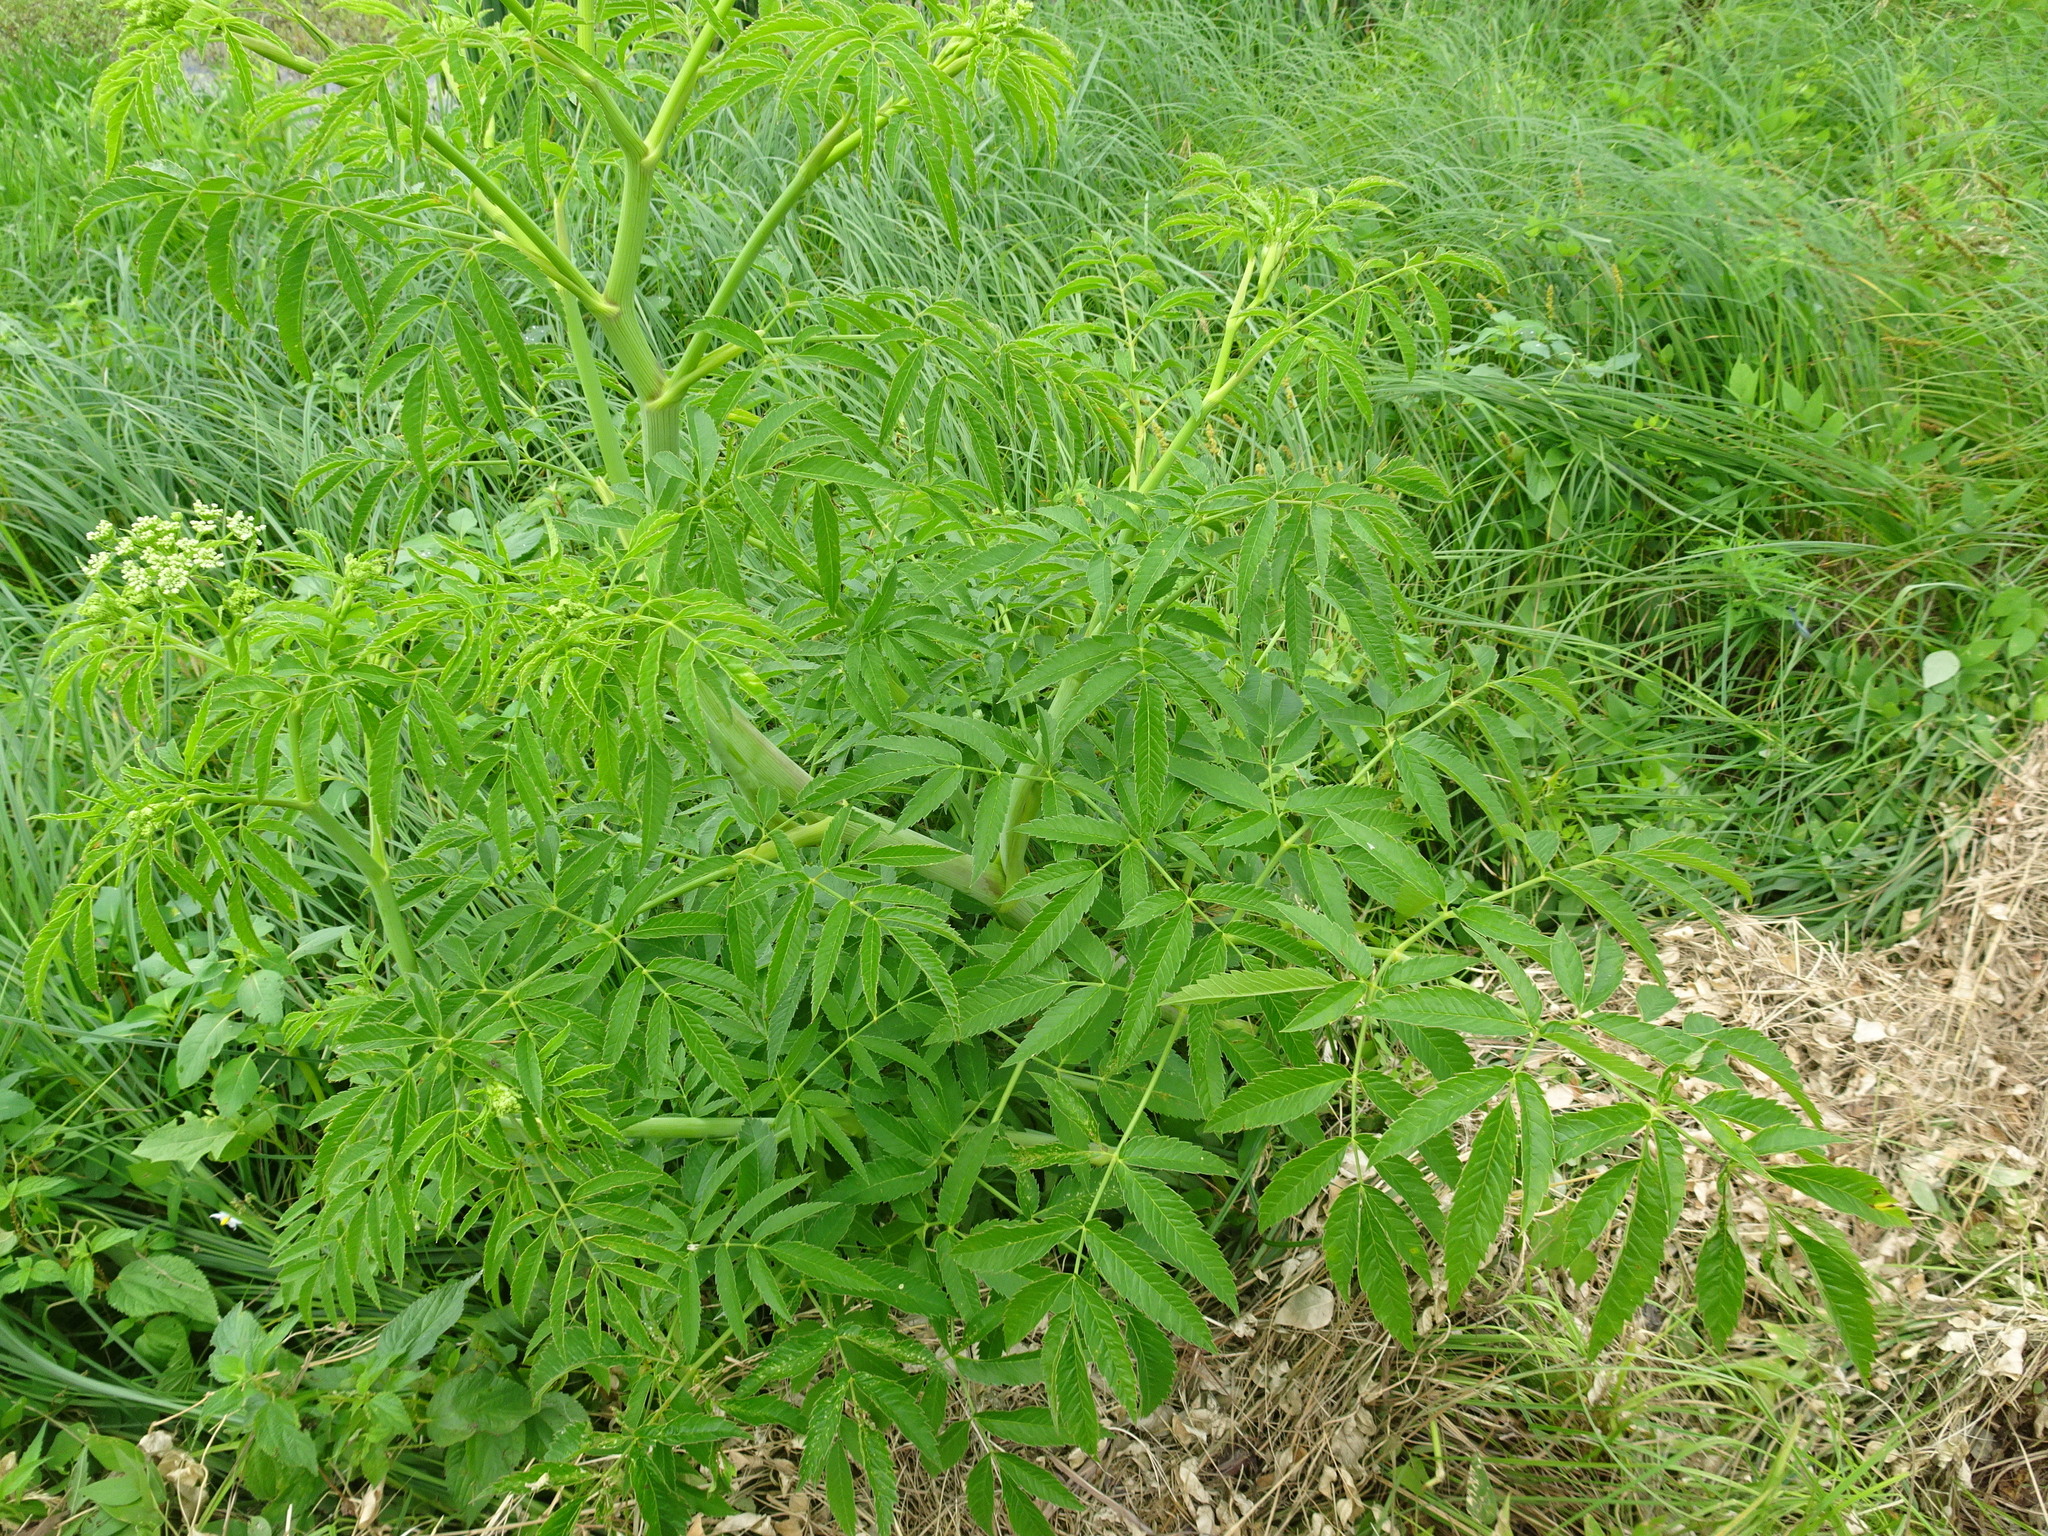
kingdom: Plantae
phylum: Tracheophyta
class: Magnoliopsida
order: Apiales
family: Apiaceae
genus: Cicuta
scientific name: Cicuta maculata
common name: Spotted cowbane
